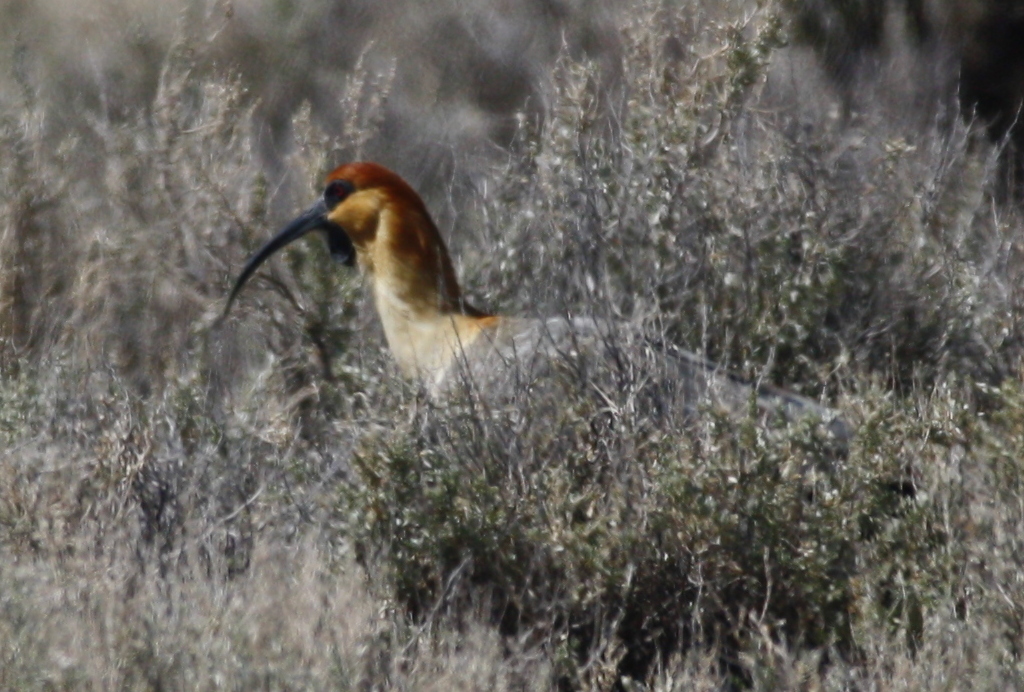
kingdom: Animalia
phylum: Chordata
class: Aves
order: Pelecaniformes
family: Threskiornithidae
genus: Theristicus
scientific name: Theristicus melanopis
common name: Black-faced ibis
